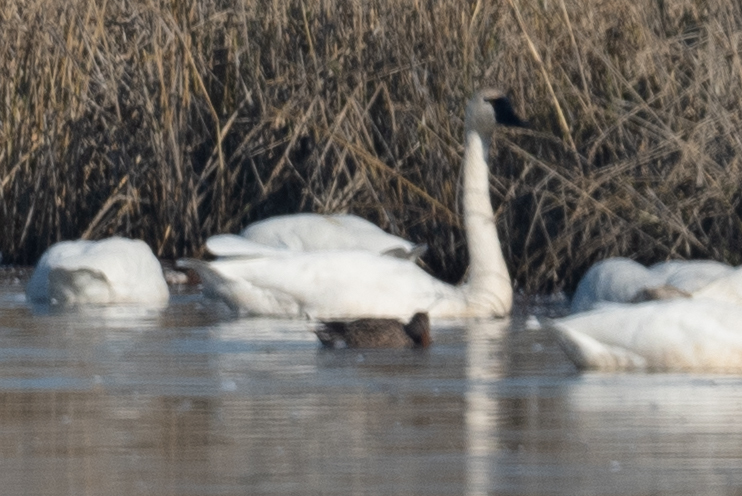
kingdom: Animalia
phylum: Chordata
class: Aves
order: Anseriformes
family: Anatidae
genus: Cygnus
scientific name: Cygnus columbianus
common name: Tundra swan
